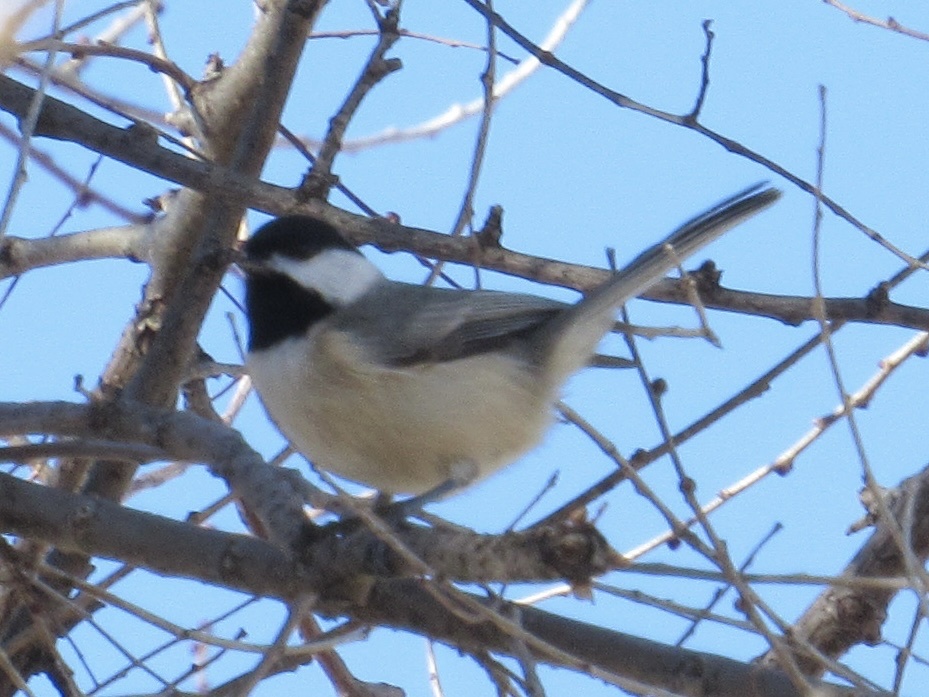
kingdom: Animalia
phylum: Chordata
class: Aves
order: Passeriformes
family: Paridae
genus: Poecile
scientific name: Poecile carolinensis
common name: Carolina chickadee
